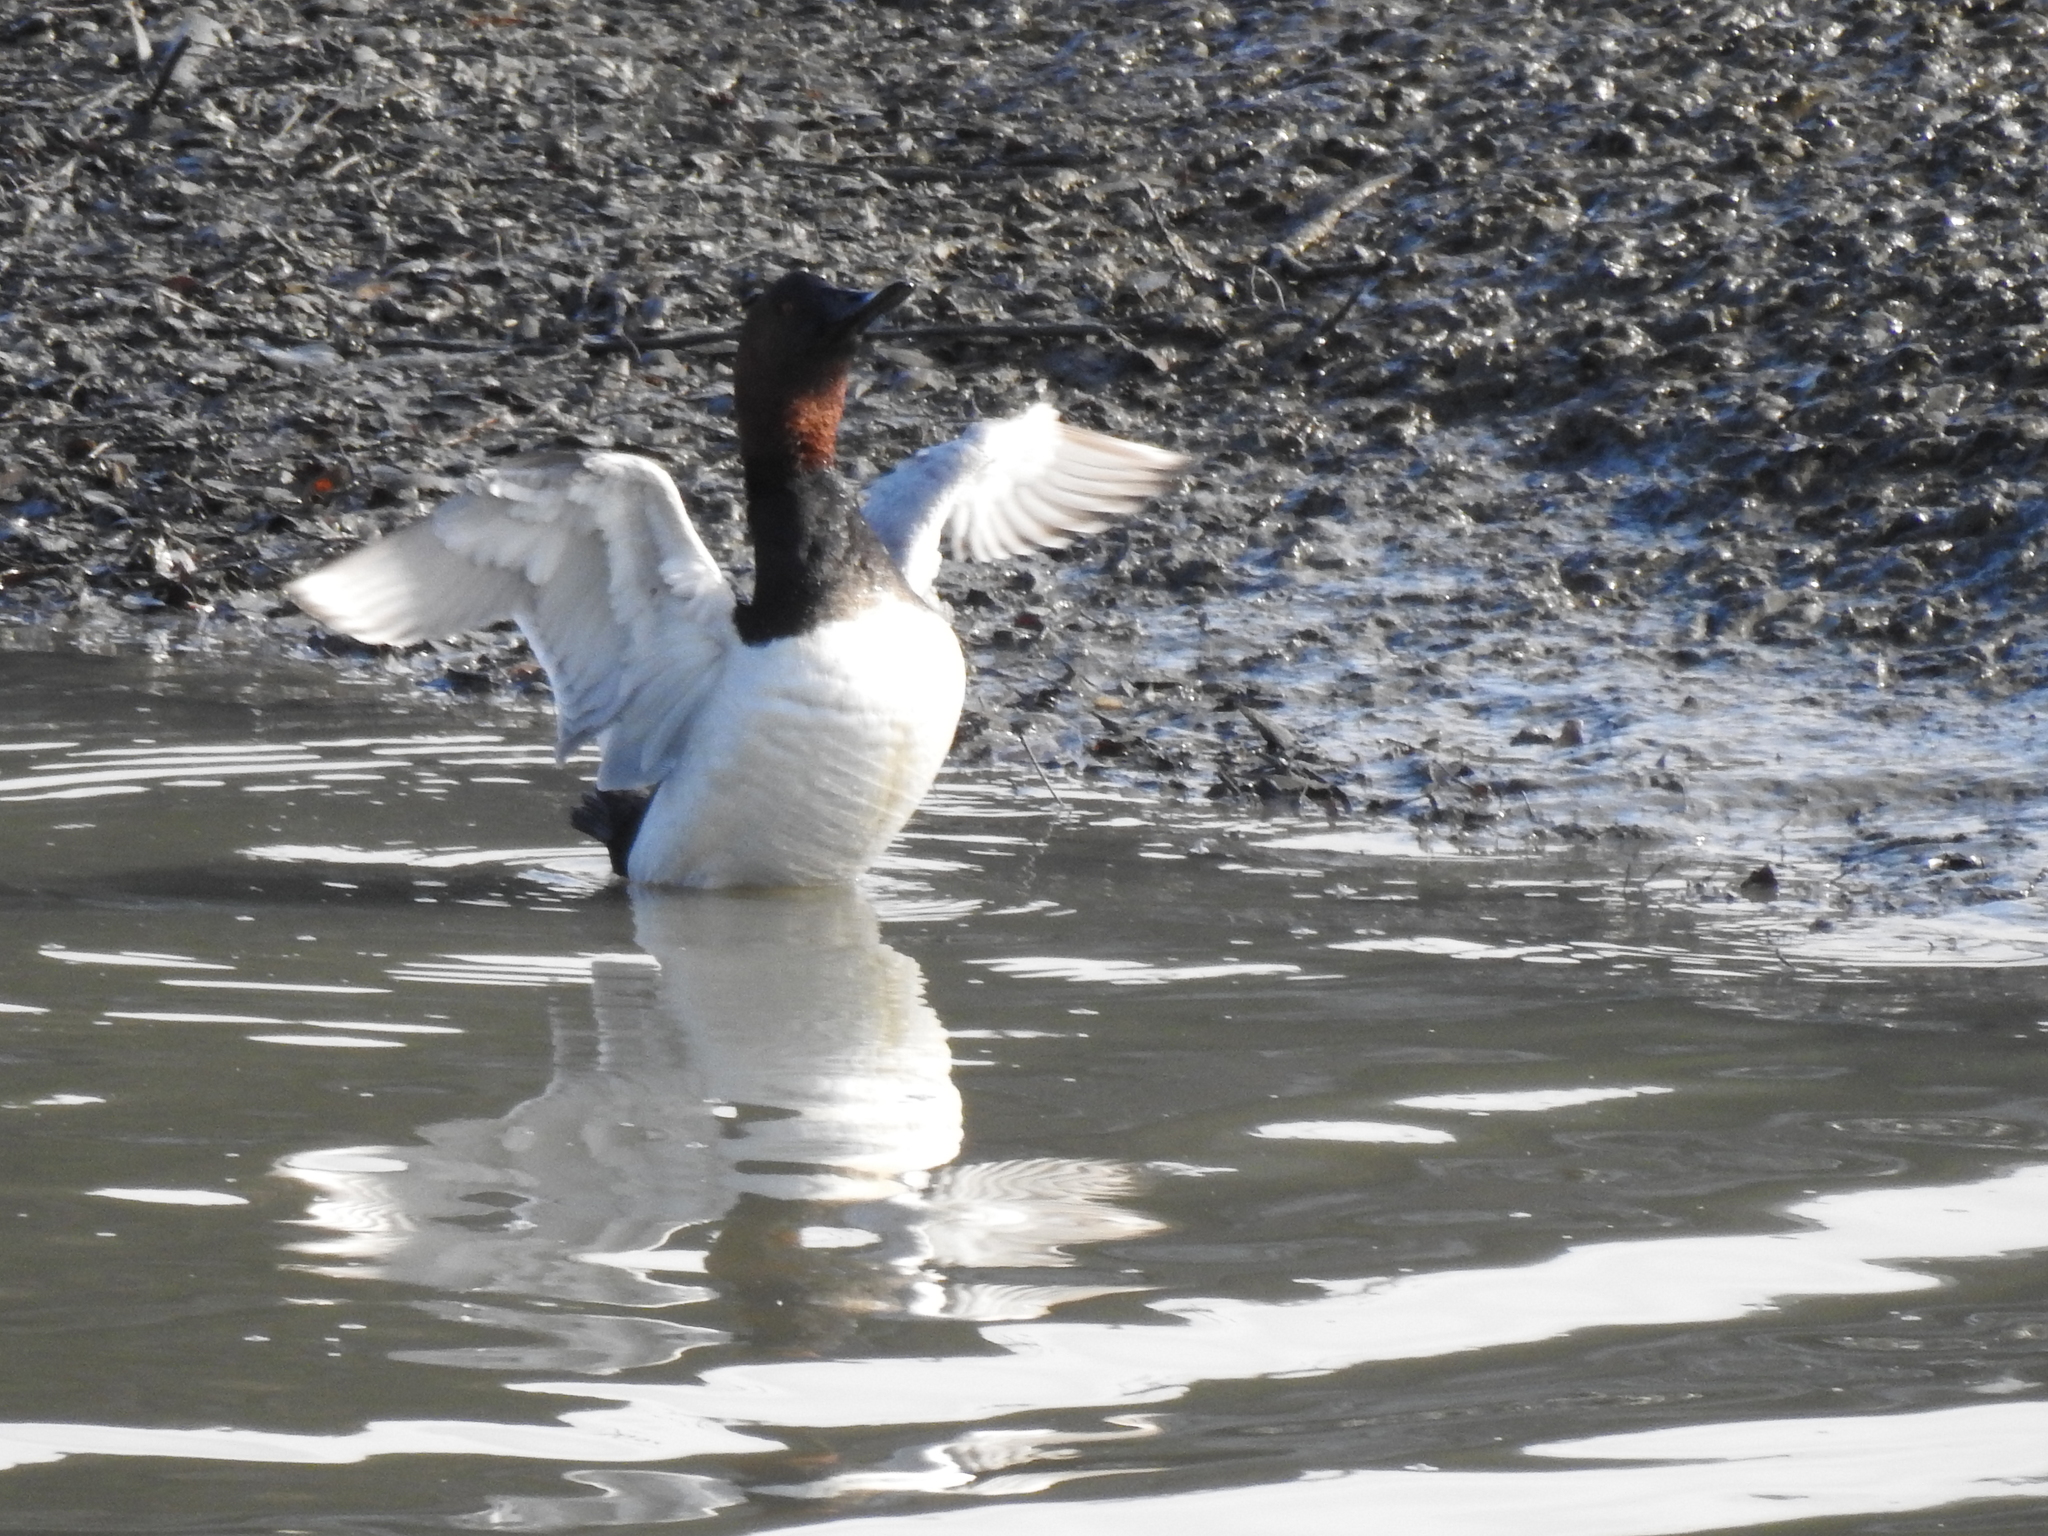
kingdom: Animalia
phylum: Chordata
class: Aves
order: Anseriformes
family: Anatidae
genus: Aythya
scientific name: Aythya valisineria
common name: Canvasback
